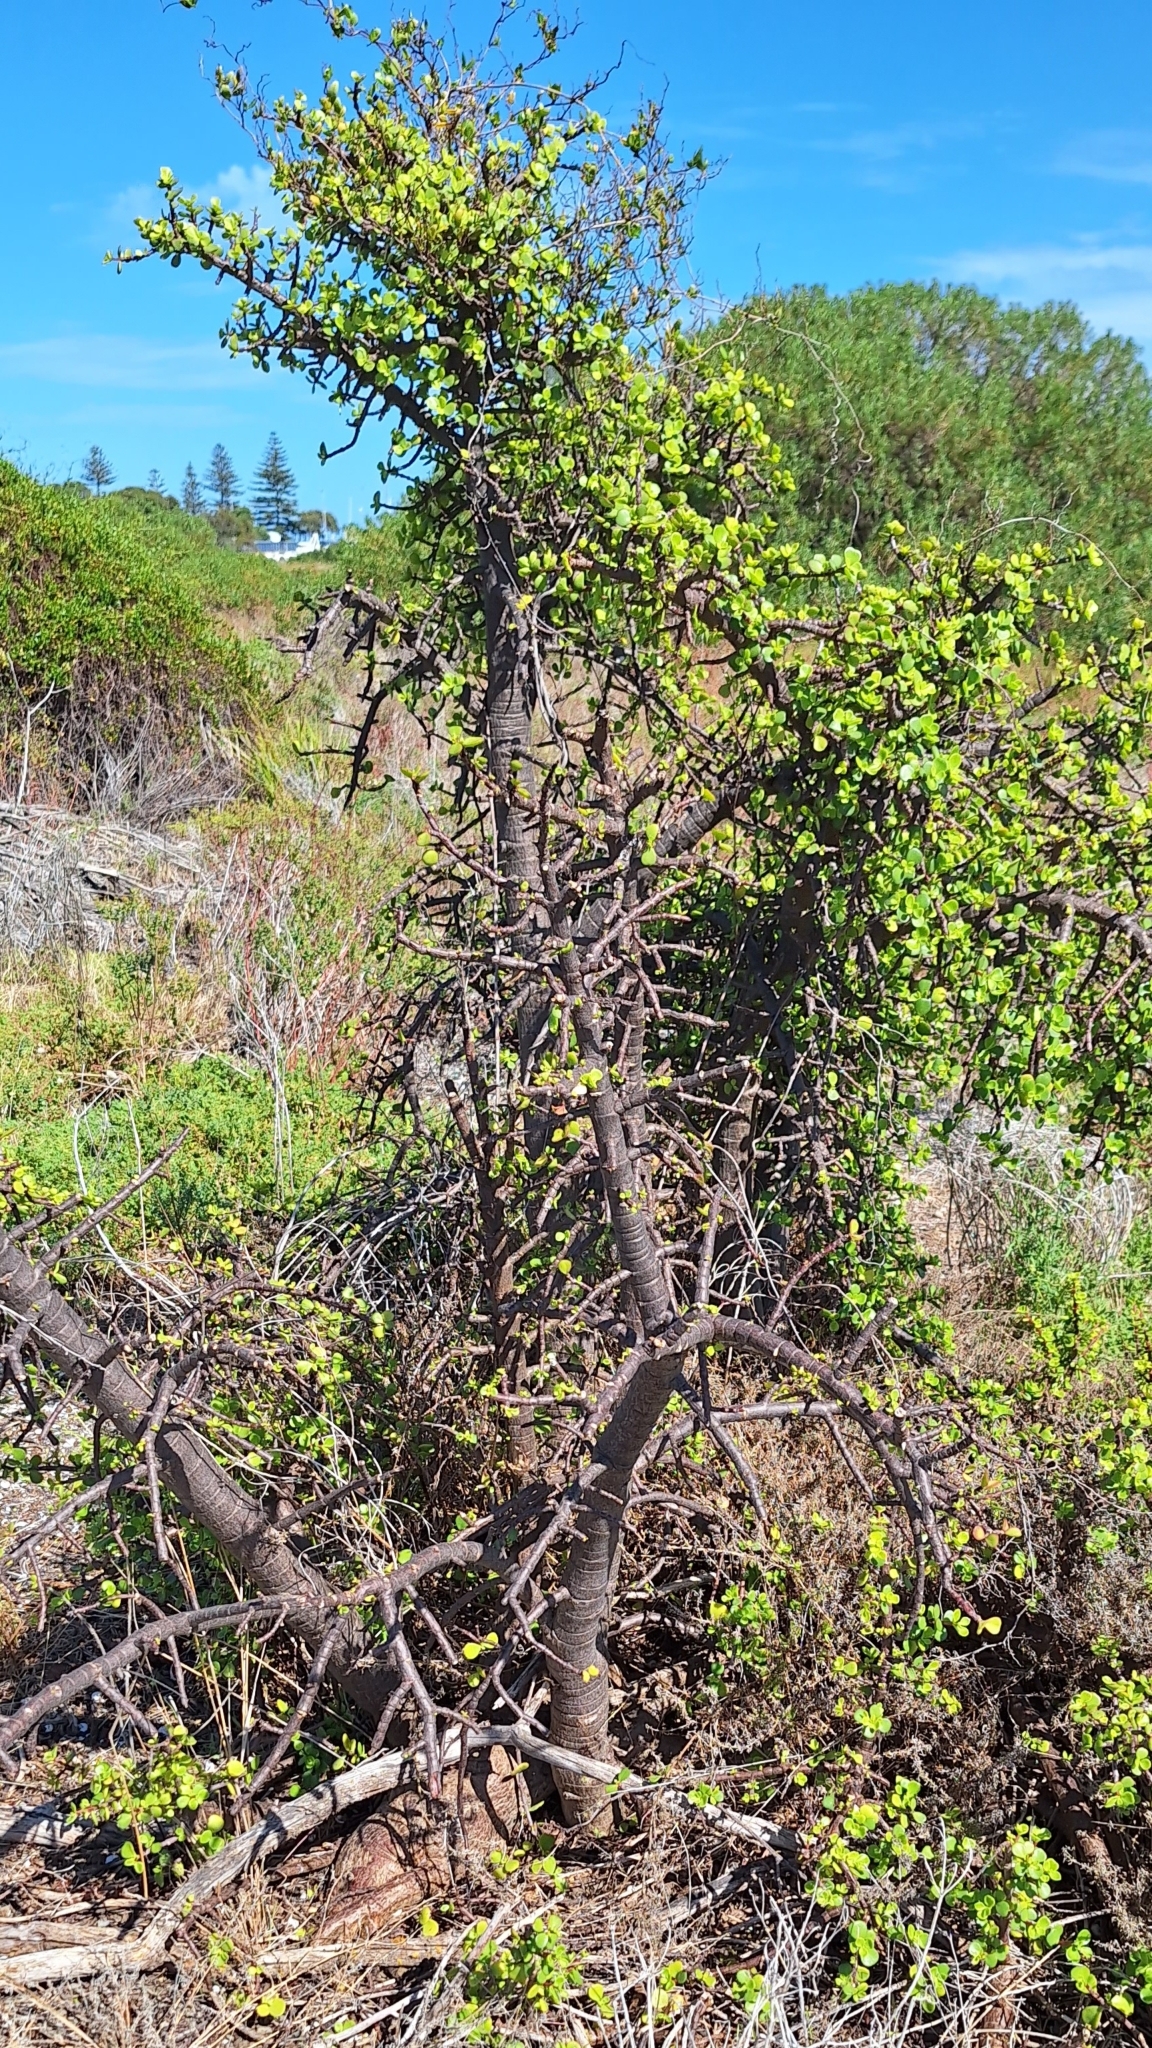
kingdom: Plantae
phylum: Tracheophyta
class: Magnoliopsida
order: Caryophyllales
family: Didiereaceae
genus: Portulacaria
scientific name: Portulacaria afra
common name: Elephant-bush
